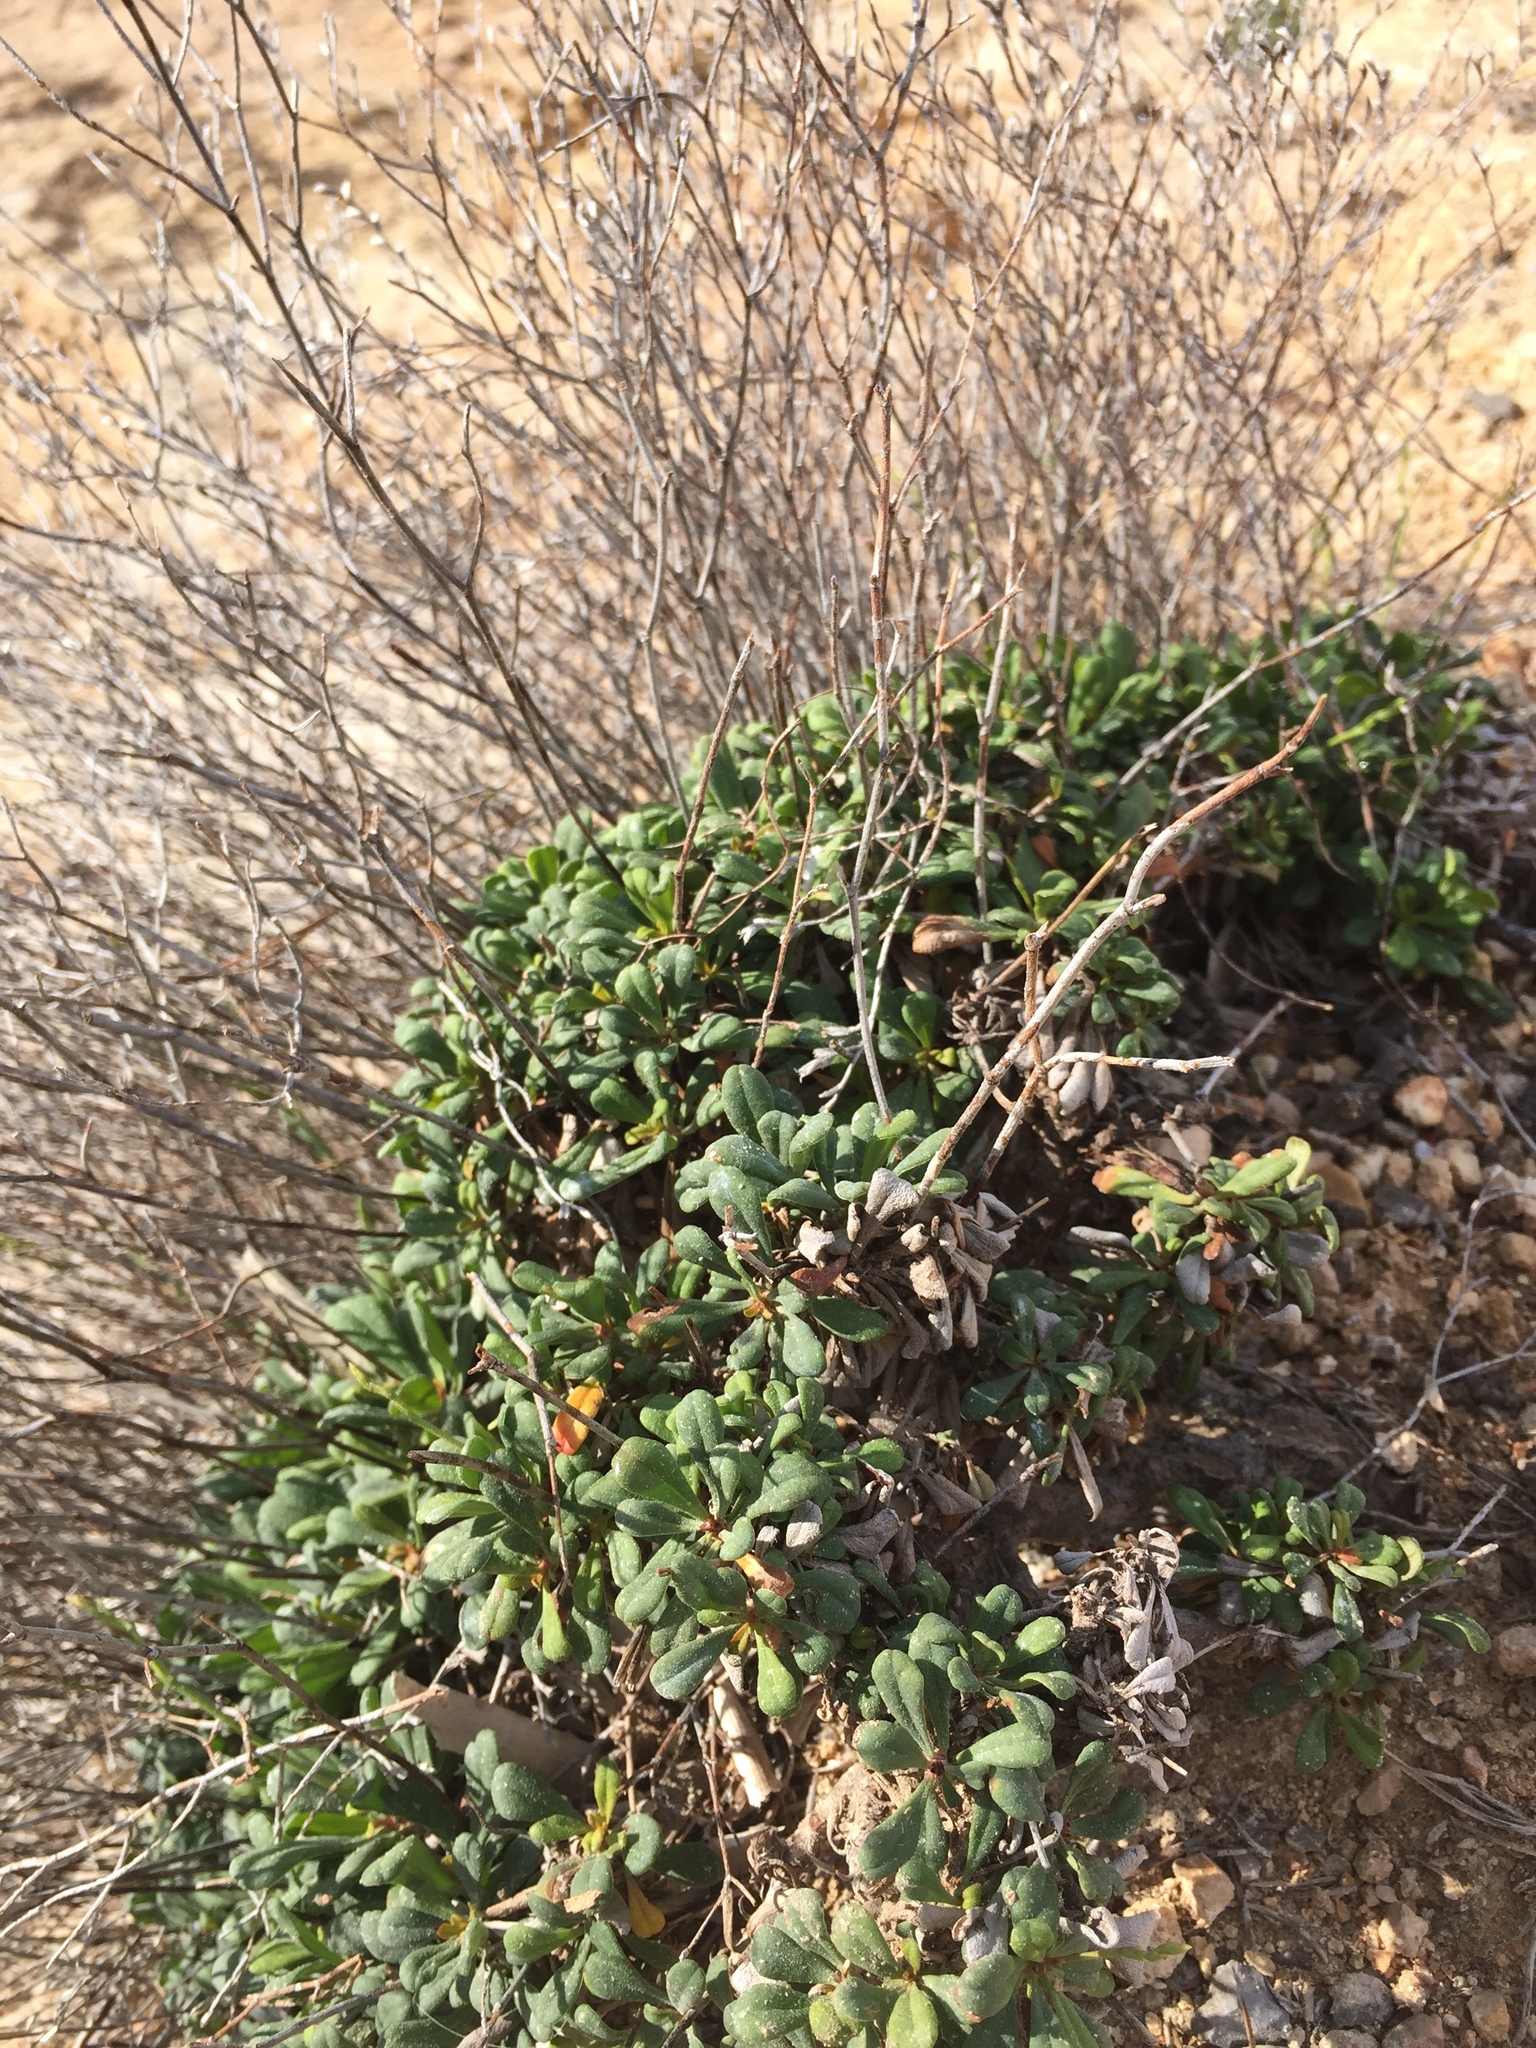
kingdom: Plantae
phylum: Tracheophyta
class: Magnoliopsida
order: Caryophyllales
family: Plumbaginaceae
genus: Limonium
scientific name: Limonium minutum
